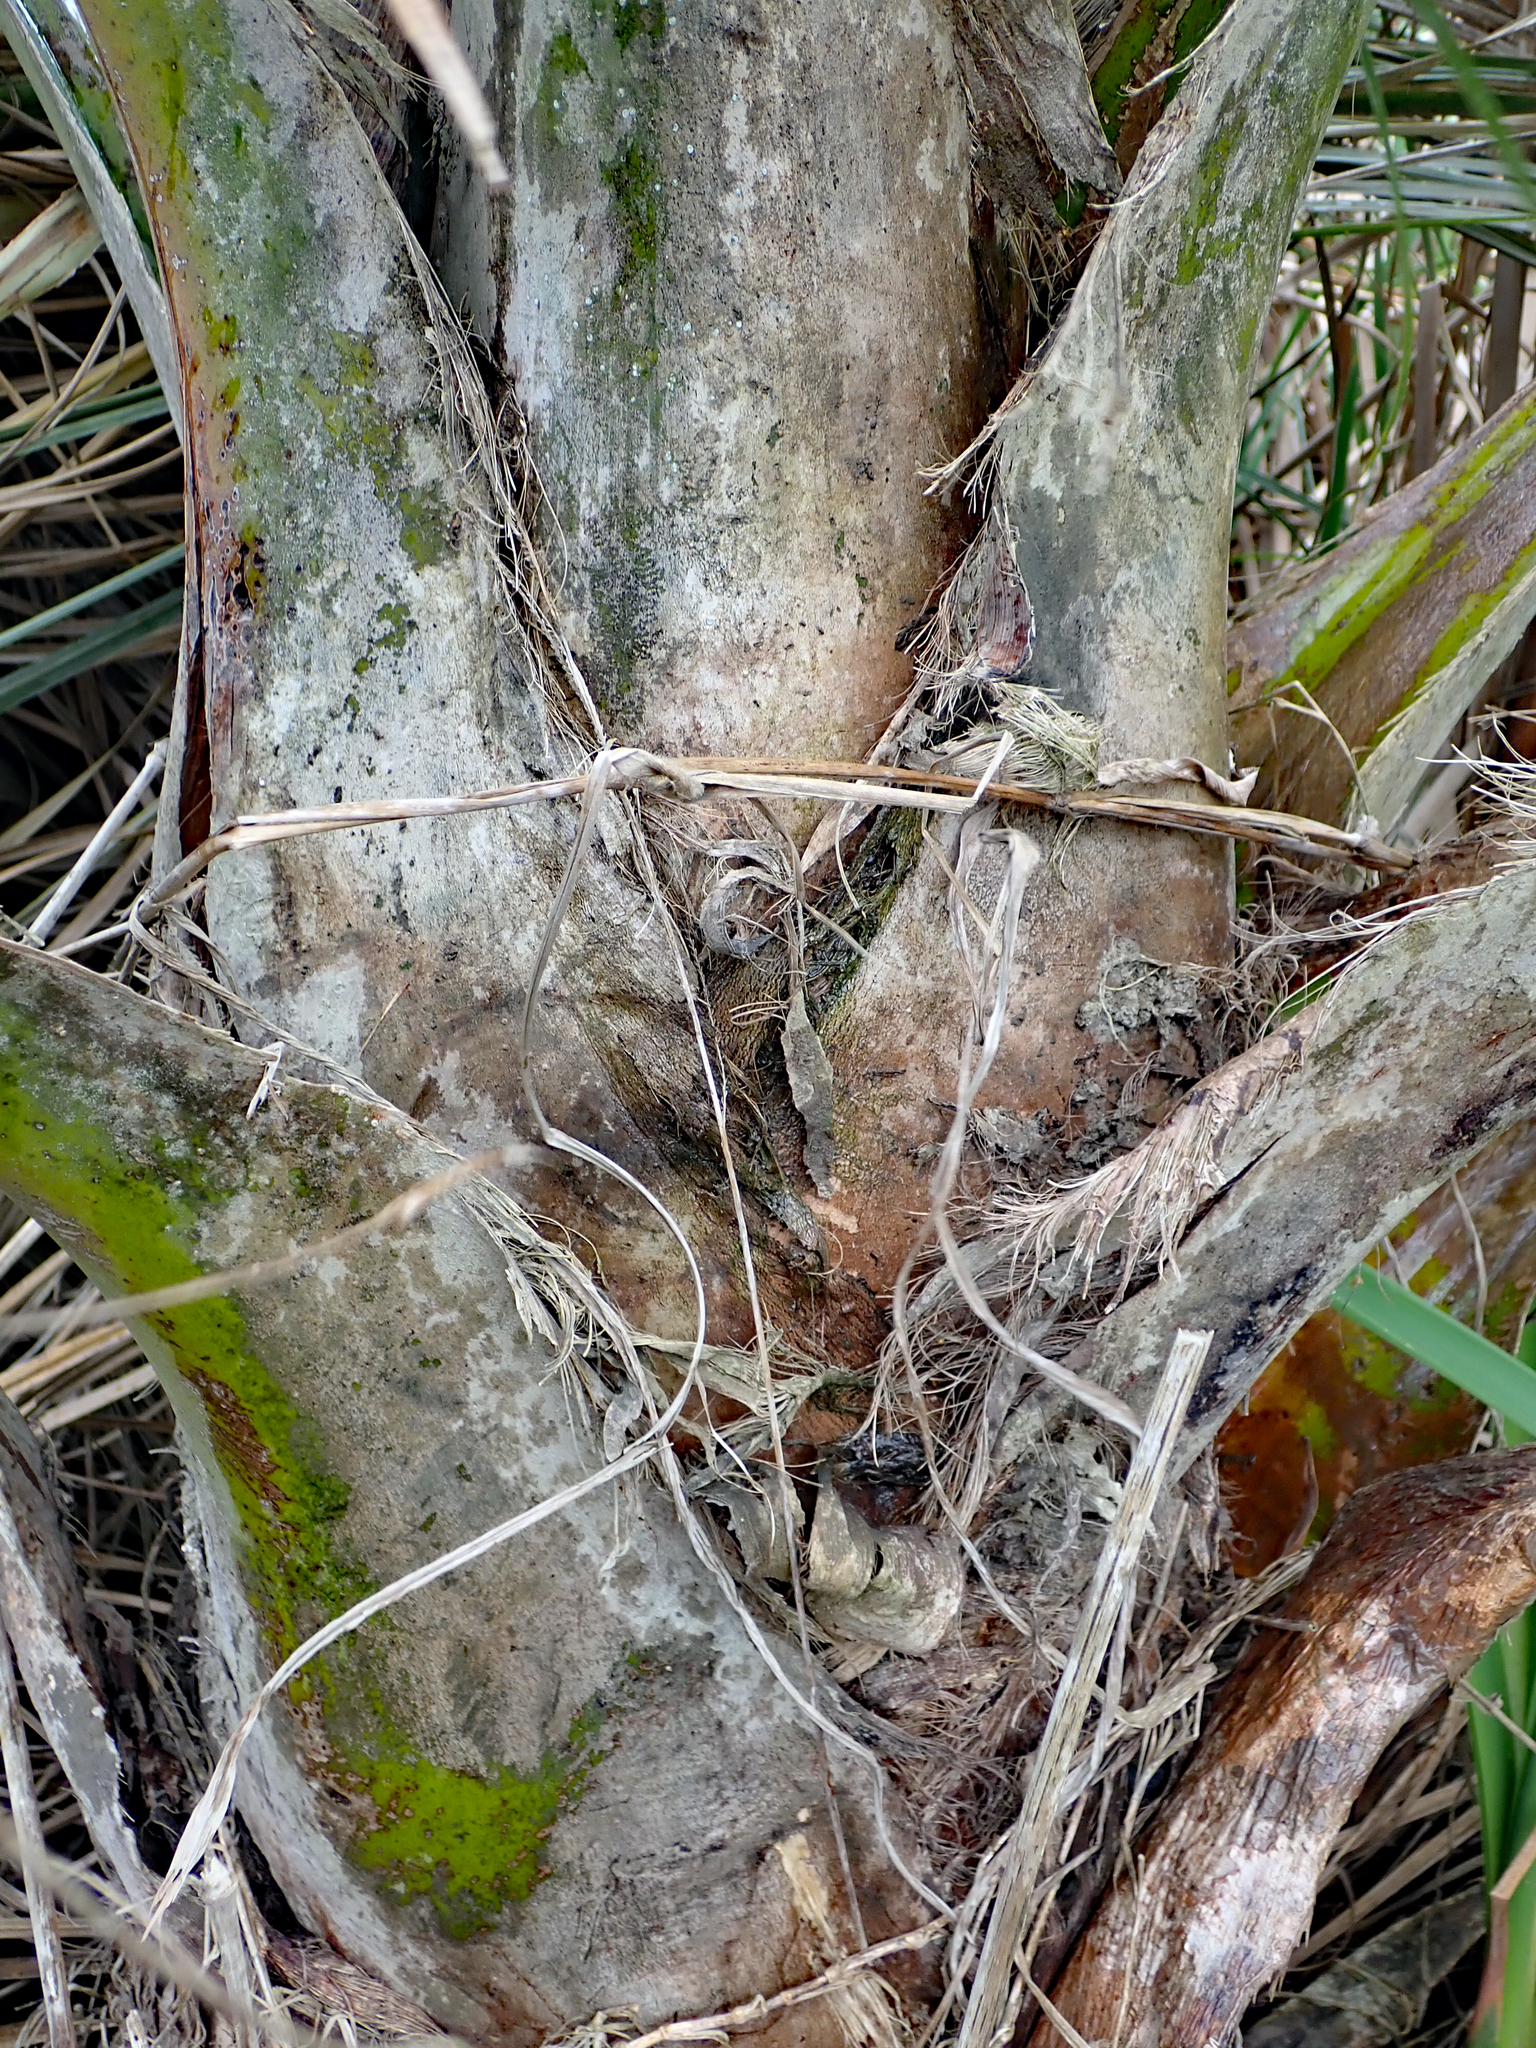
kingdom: Plantae
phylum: Tracheophyta
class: Liliopsida
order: Arecales
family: Arecaceae
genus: Ravenea
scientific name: Ravenea rivularis
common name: Majestic palm
